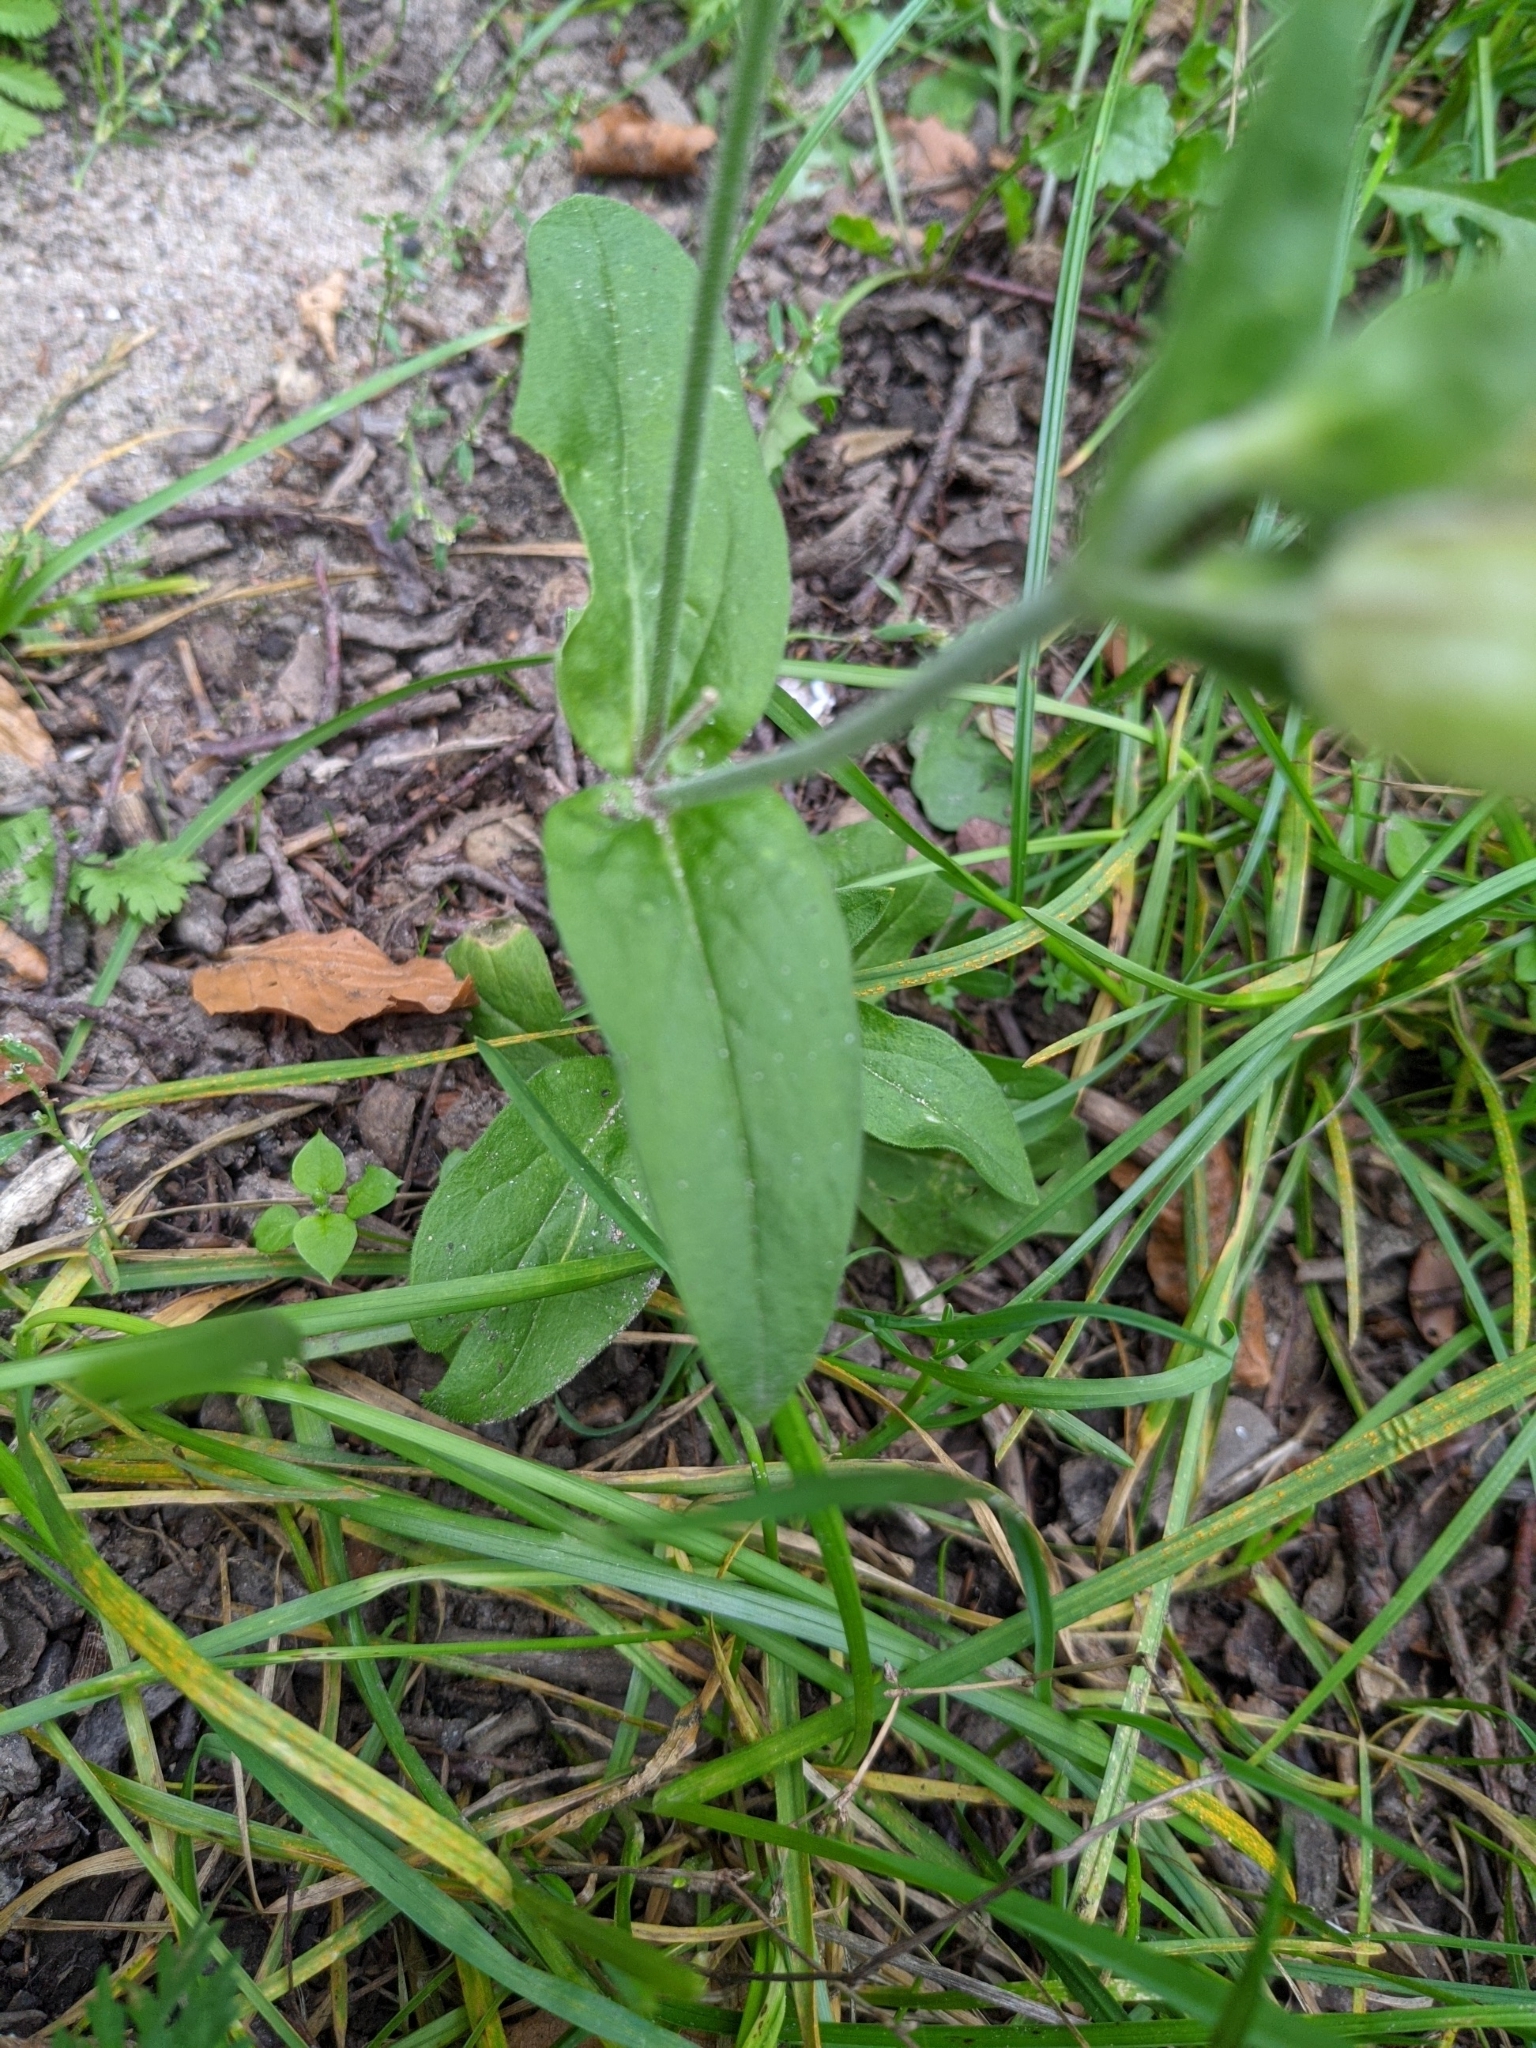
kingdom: Plantae
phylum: Tracheophyta
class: Magnoliopsida
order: Caryophyllales
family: Caryophyllaceae
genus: Silene
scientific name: Silene latifolia
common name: White campion
